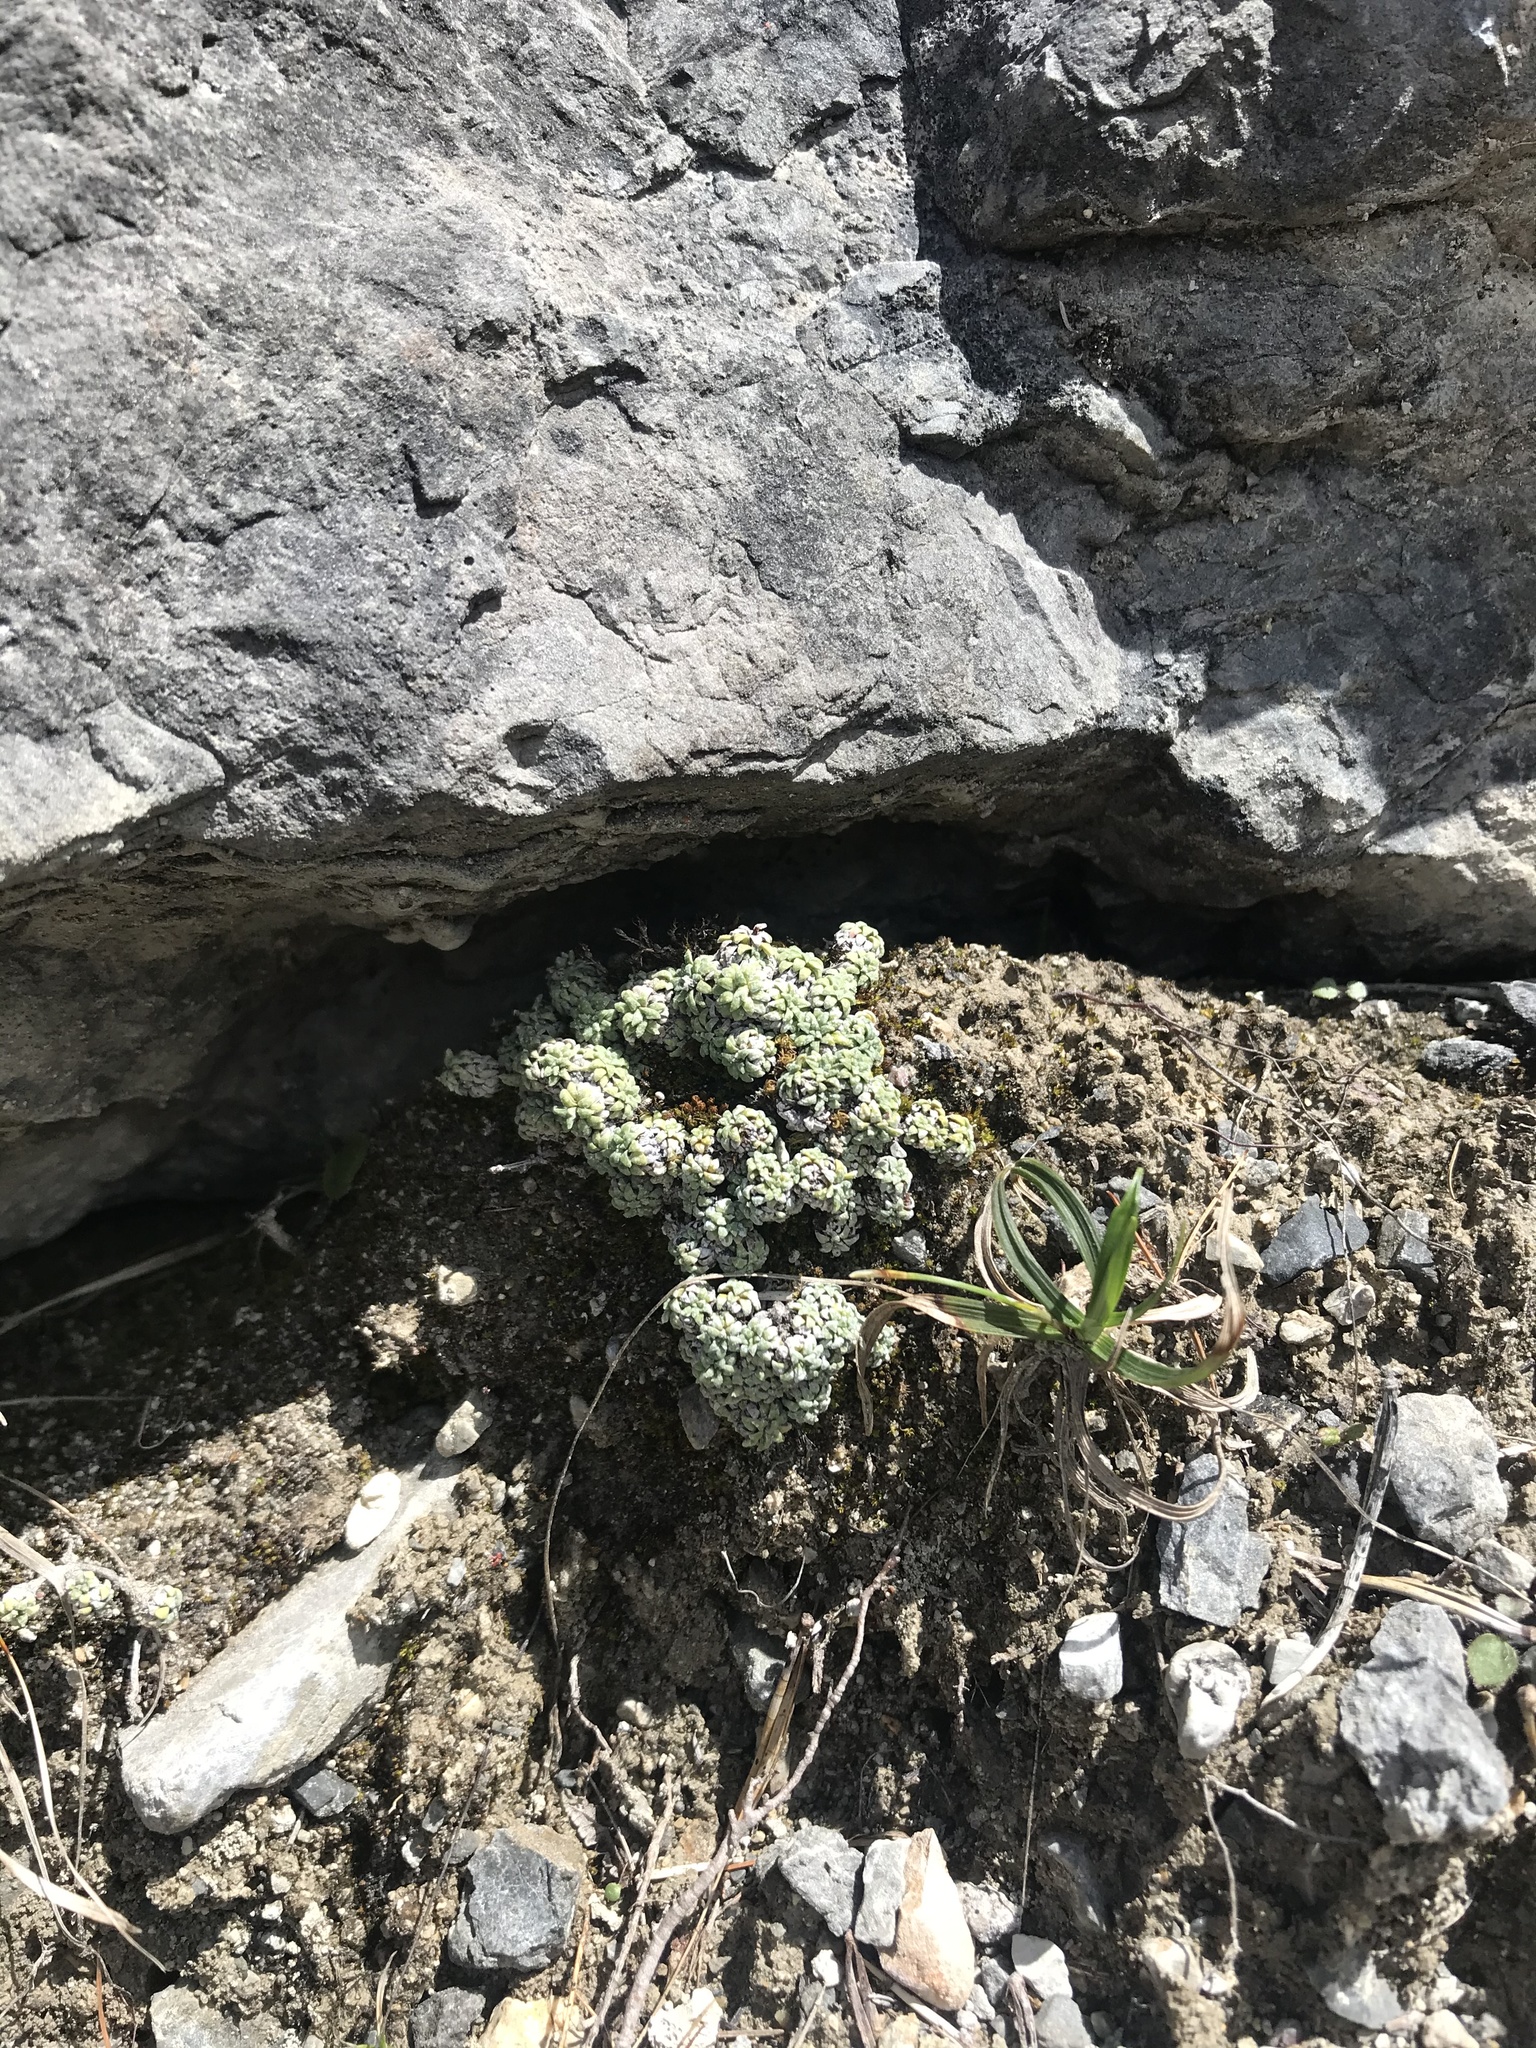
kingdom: Plantae
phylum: Tracheophyta
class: Magnoliopsida
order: Saxifragales
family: Saxifragaceae
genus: Saxifraga
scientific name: Saxifraga caesia
